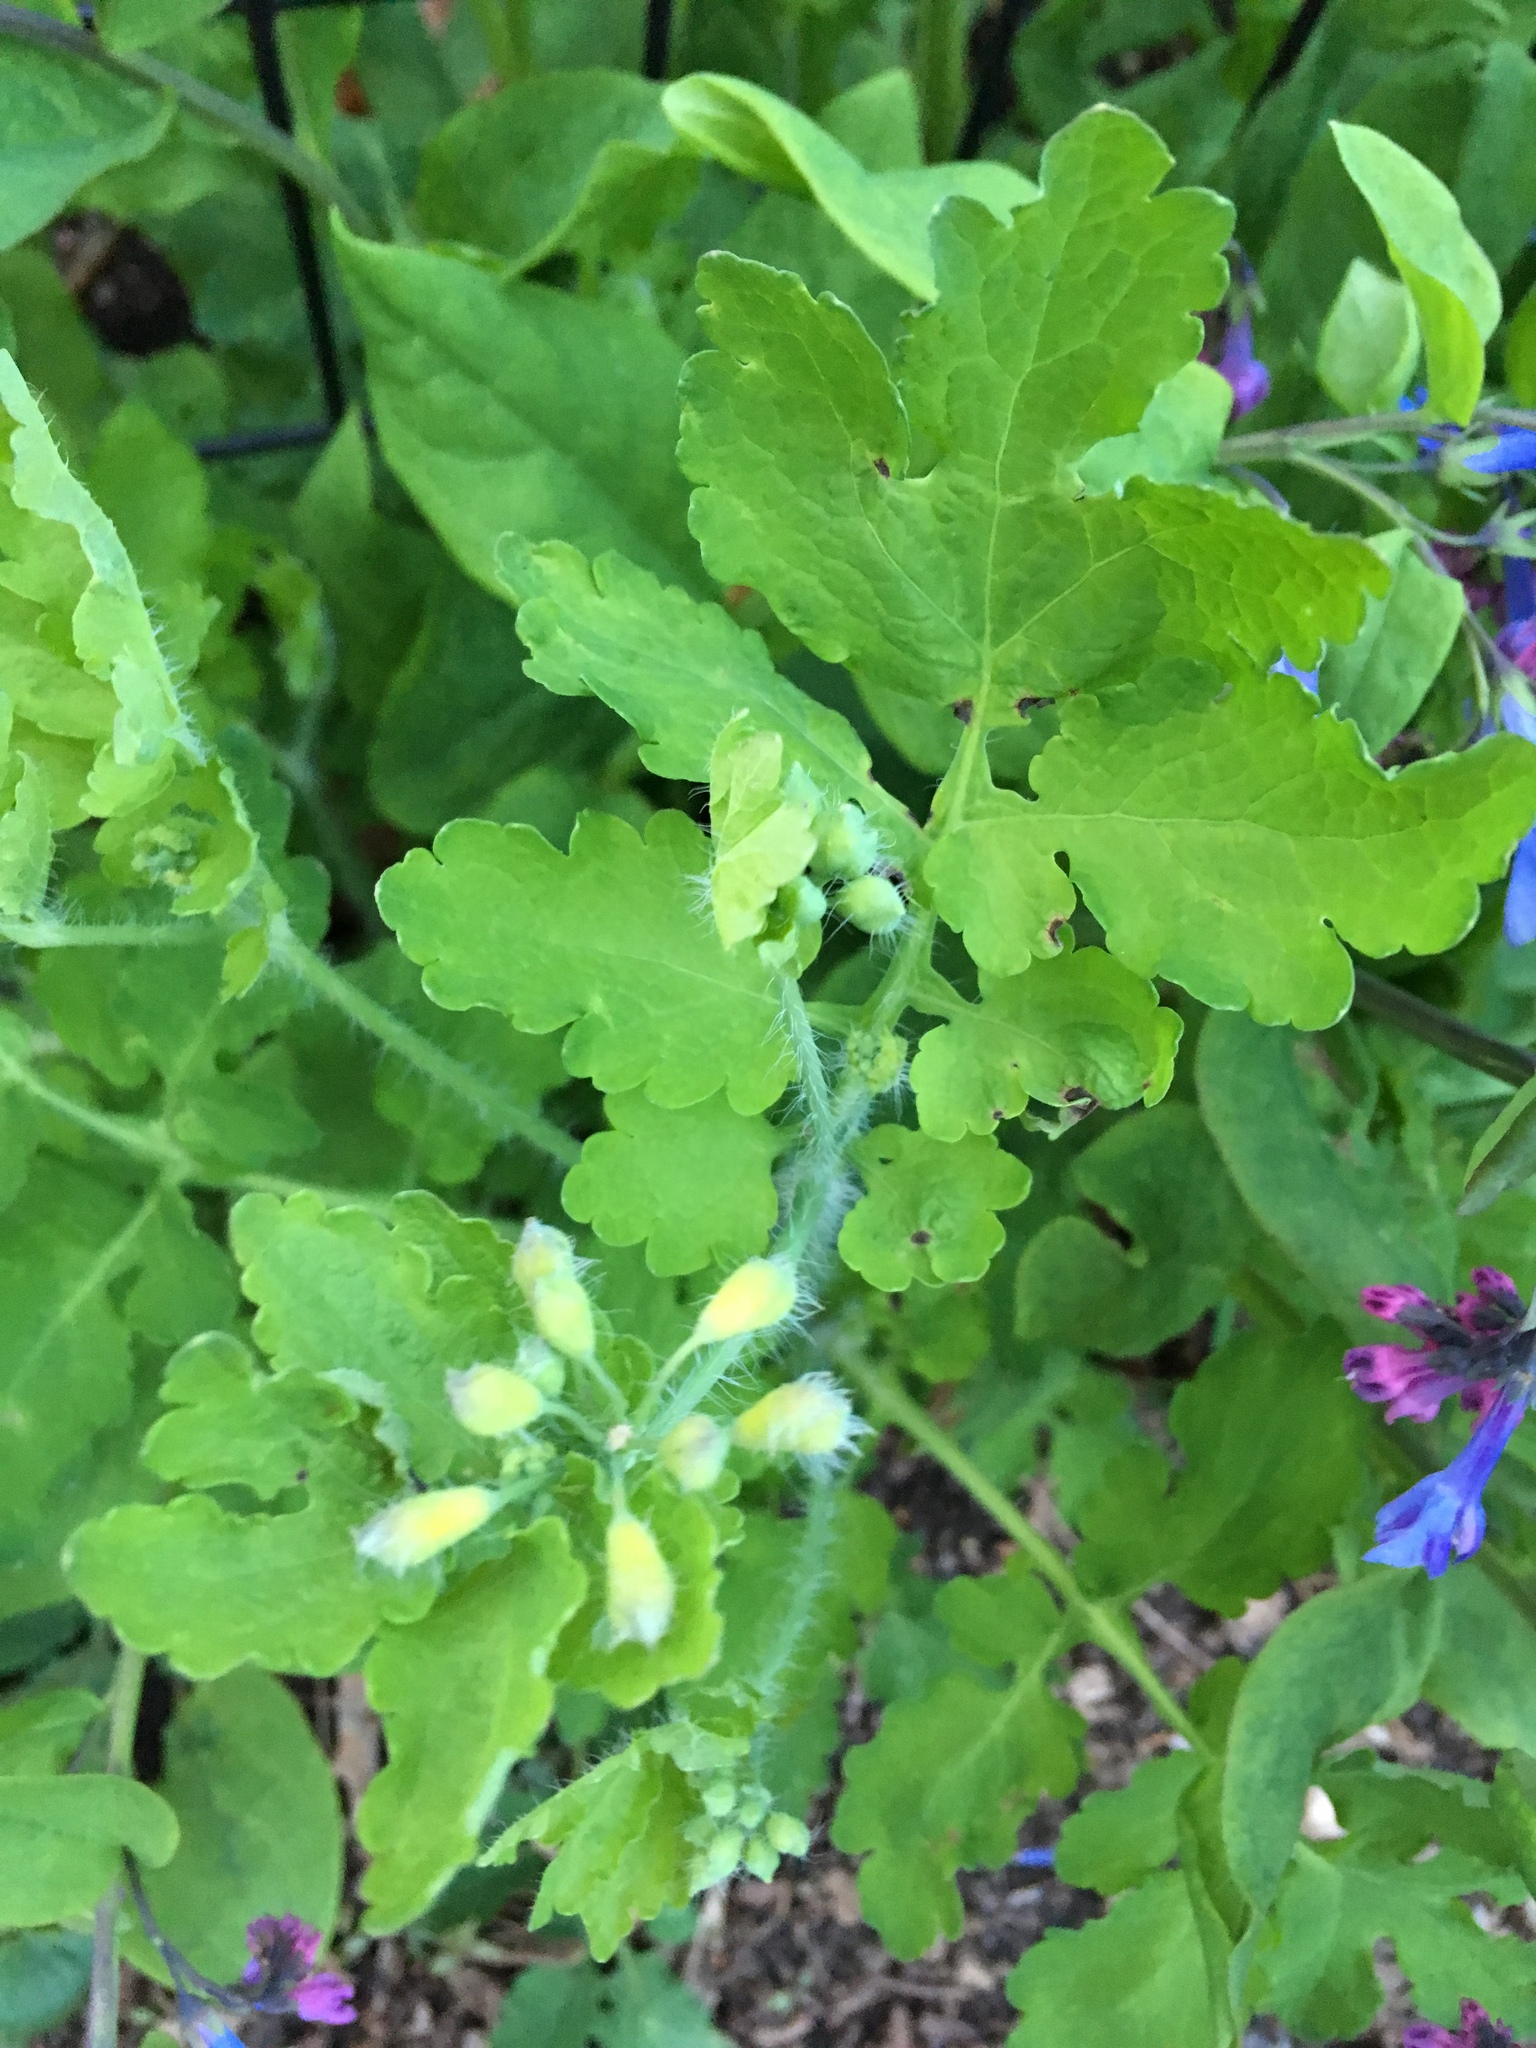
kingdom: Plantae
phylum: Tracheophyta
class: Magnoliopsida
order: Ranunculales
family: Papaveraceae
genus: Chelidonium
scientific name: Chelidonium majus
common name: Greater celandine
